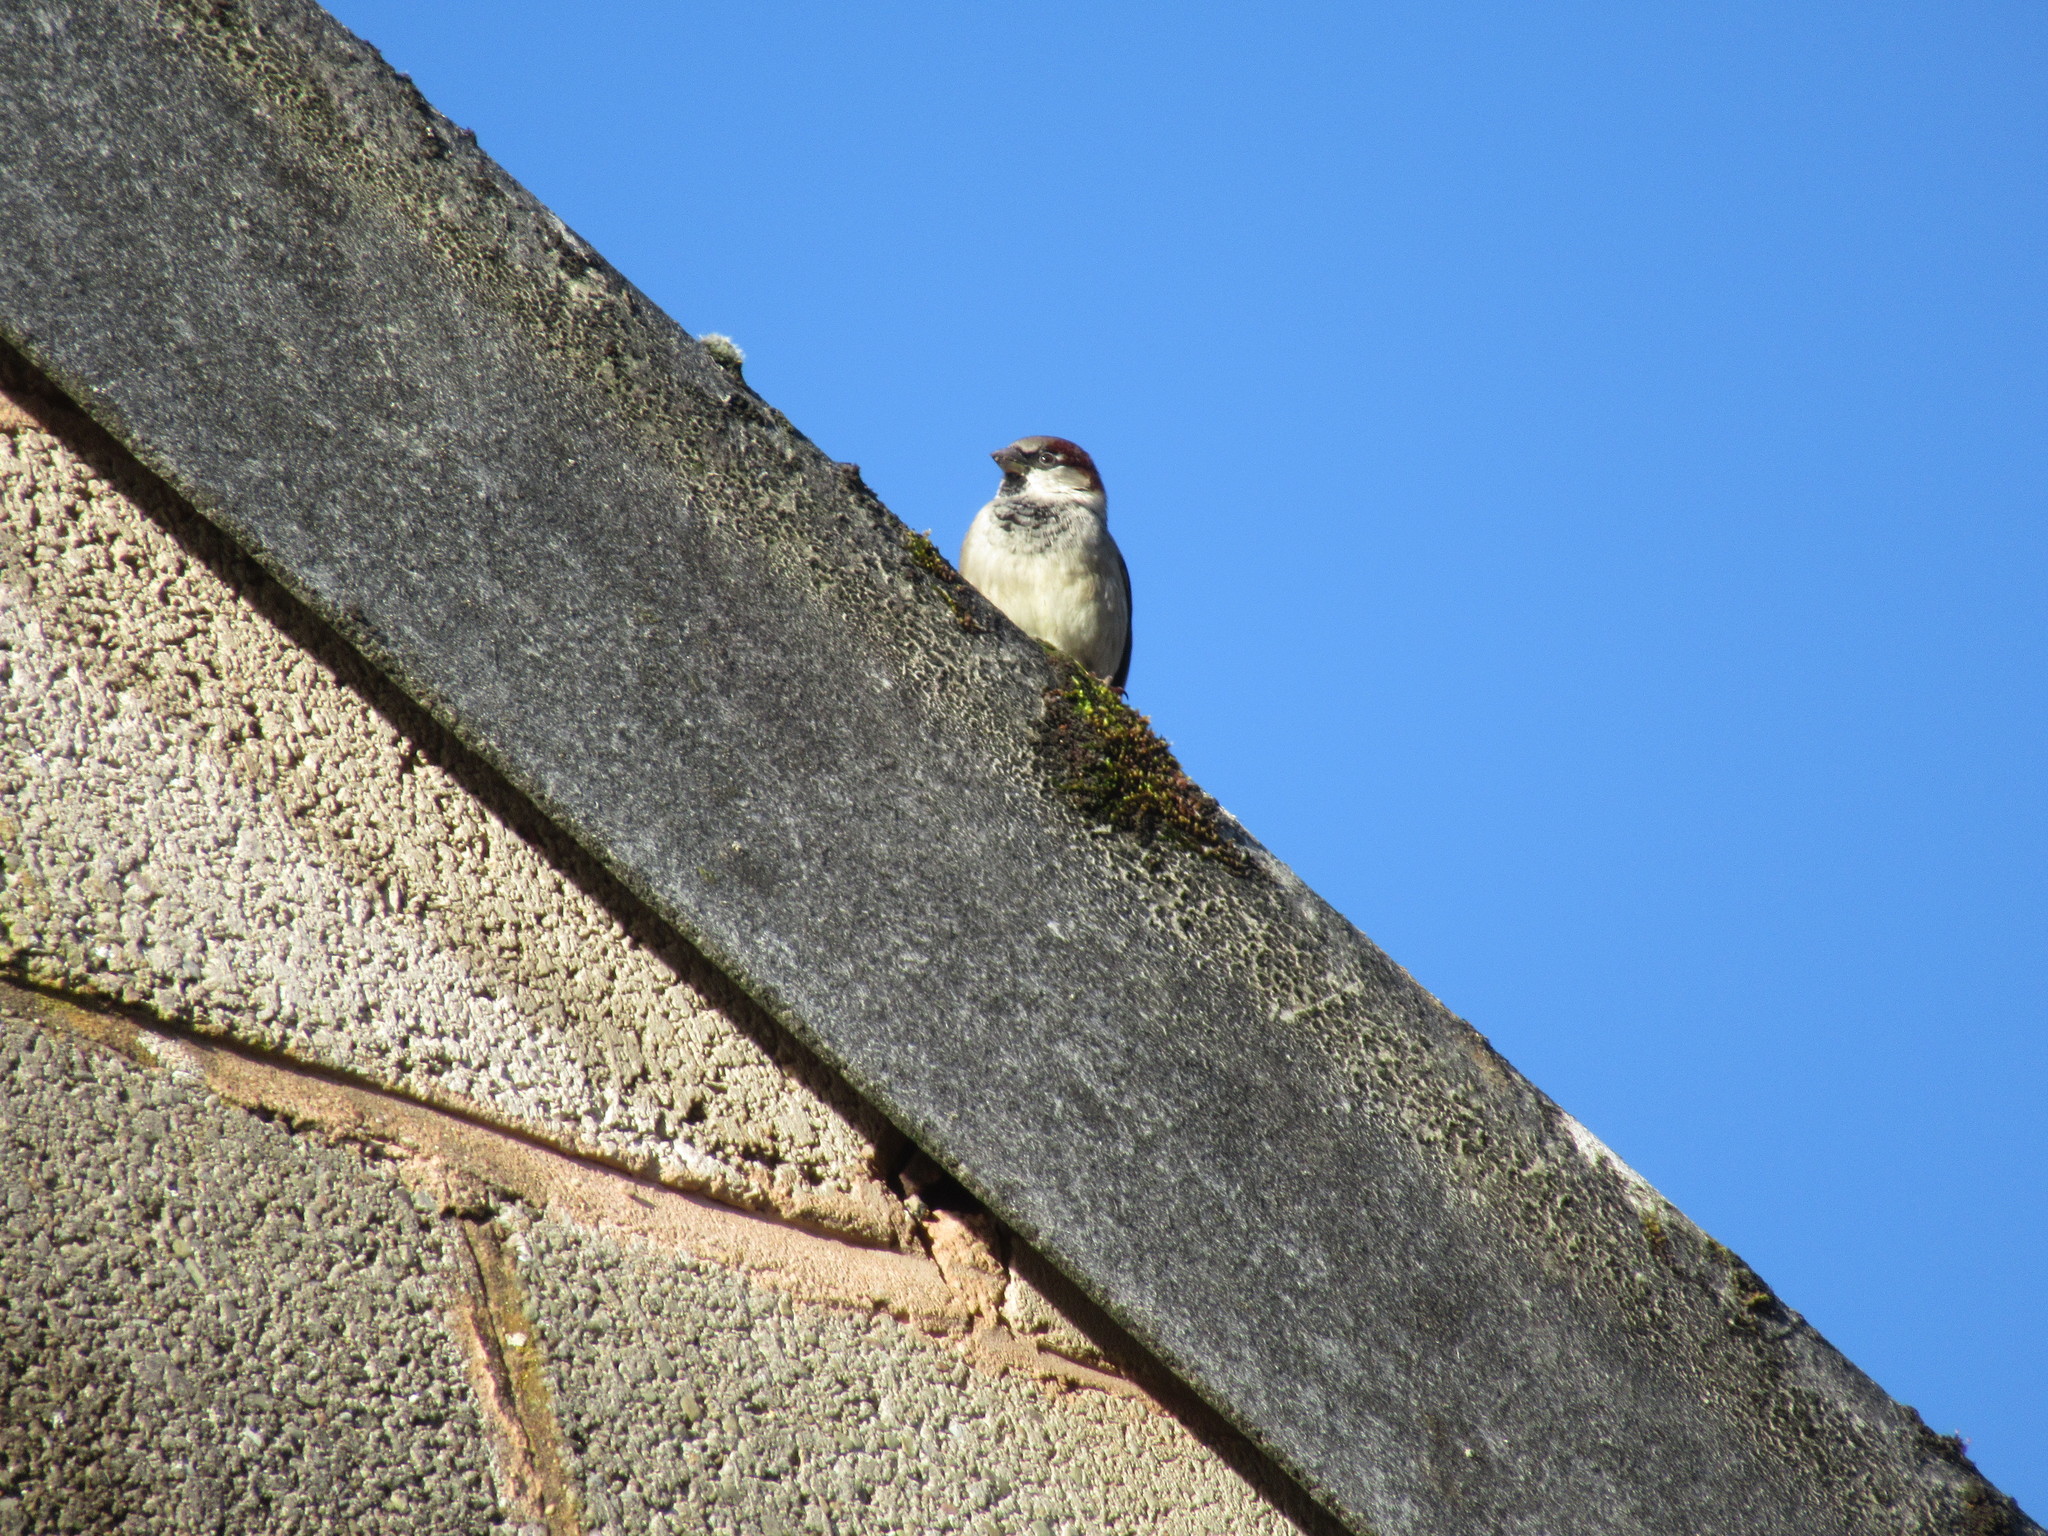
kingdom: Animalia
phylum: Chordata
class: Aves
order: Passeriformes
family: Passeridae
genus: Passer
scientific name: Passer domesticus
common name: House sparrow
